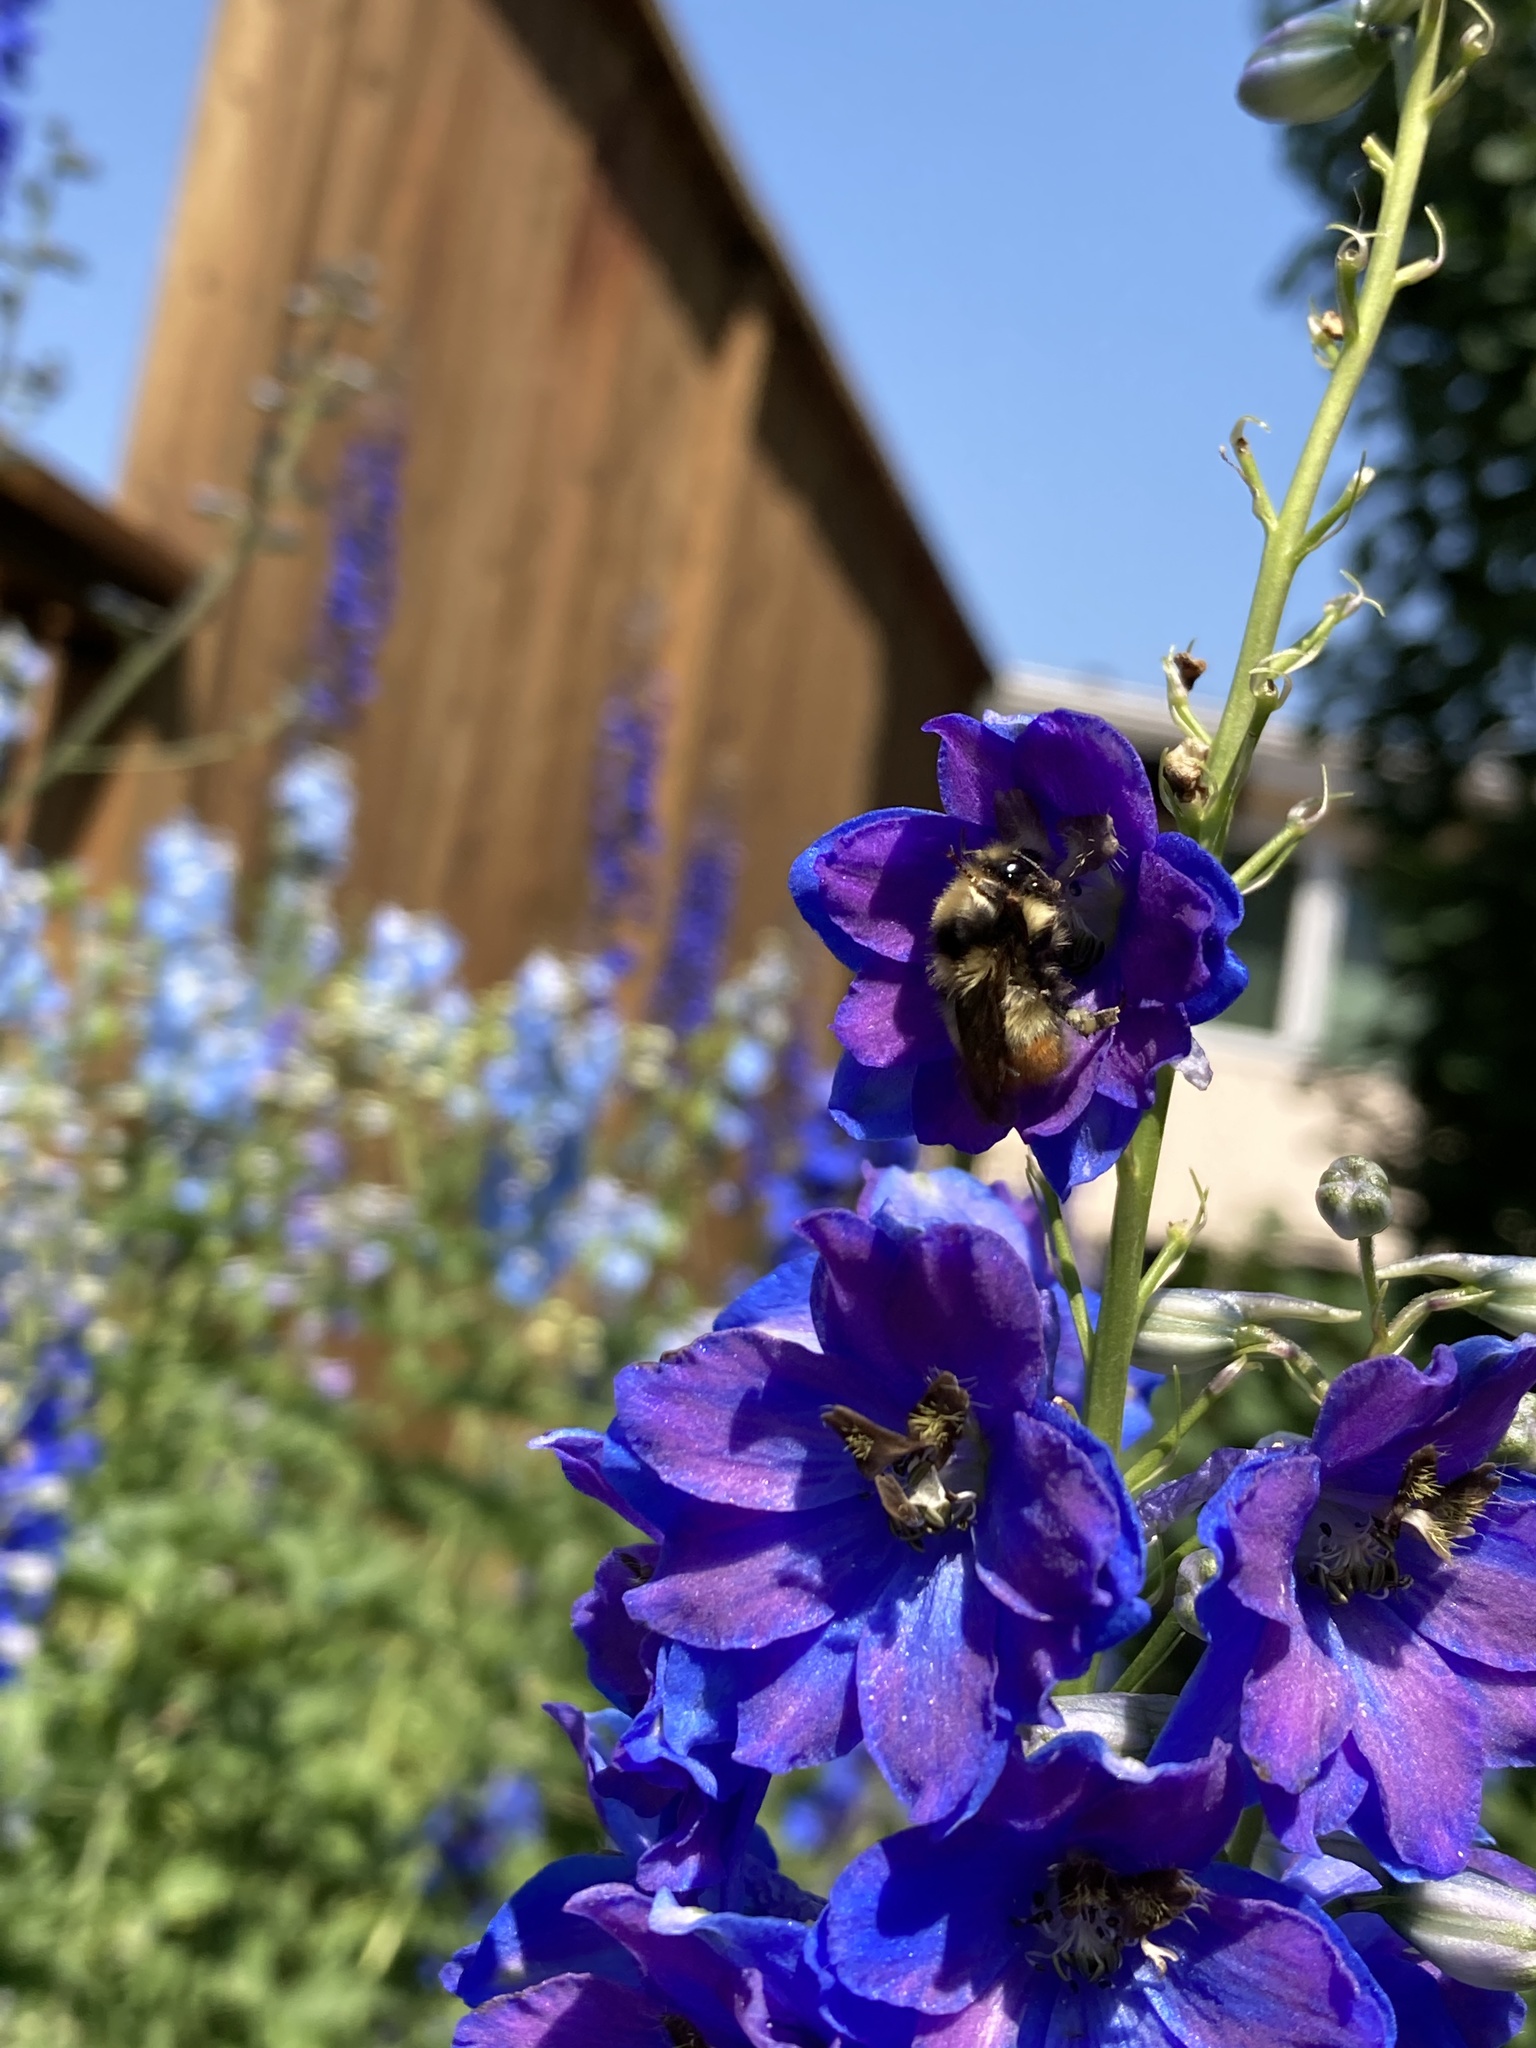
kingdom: Animalia
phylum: Arthropoda
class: Insecta
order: Hymenoptera
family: Apidae
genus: Bombus
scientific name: Bombus centralis
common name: Central bumble bee
